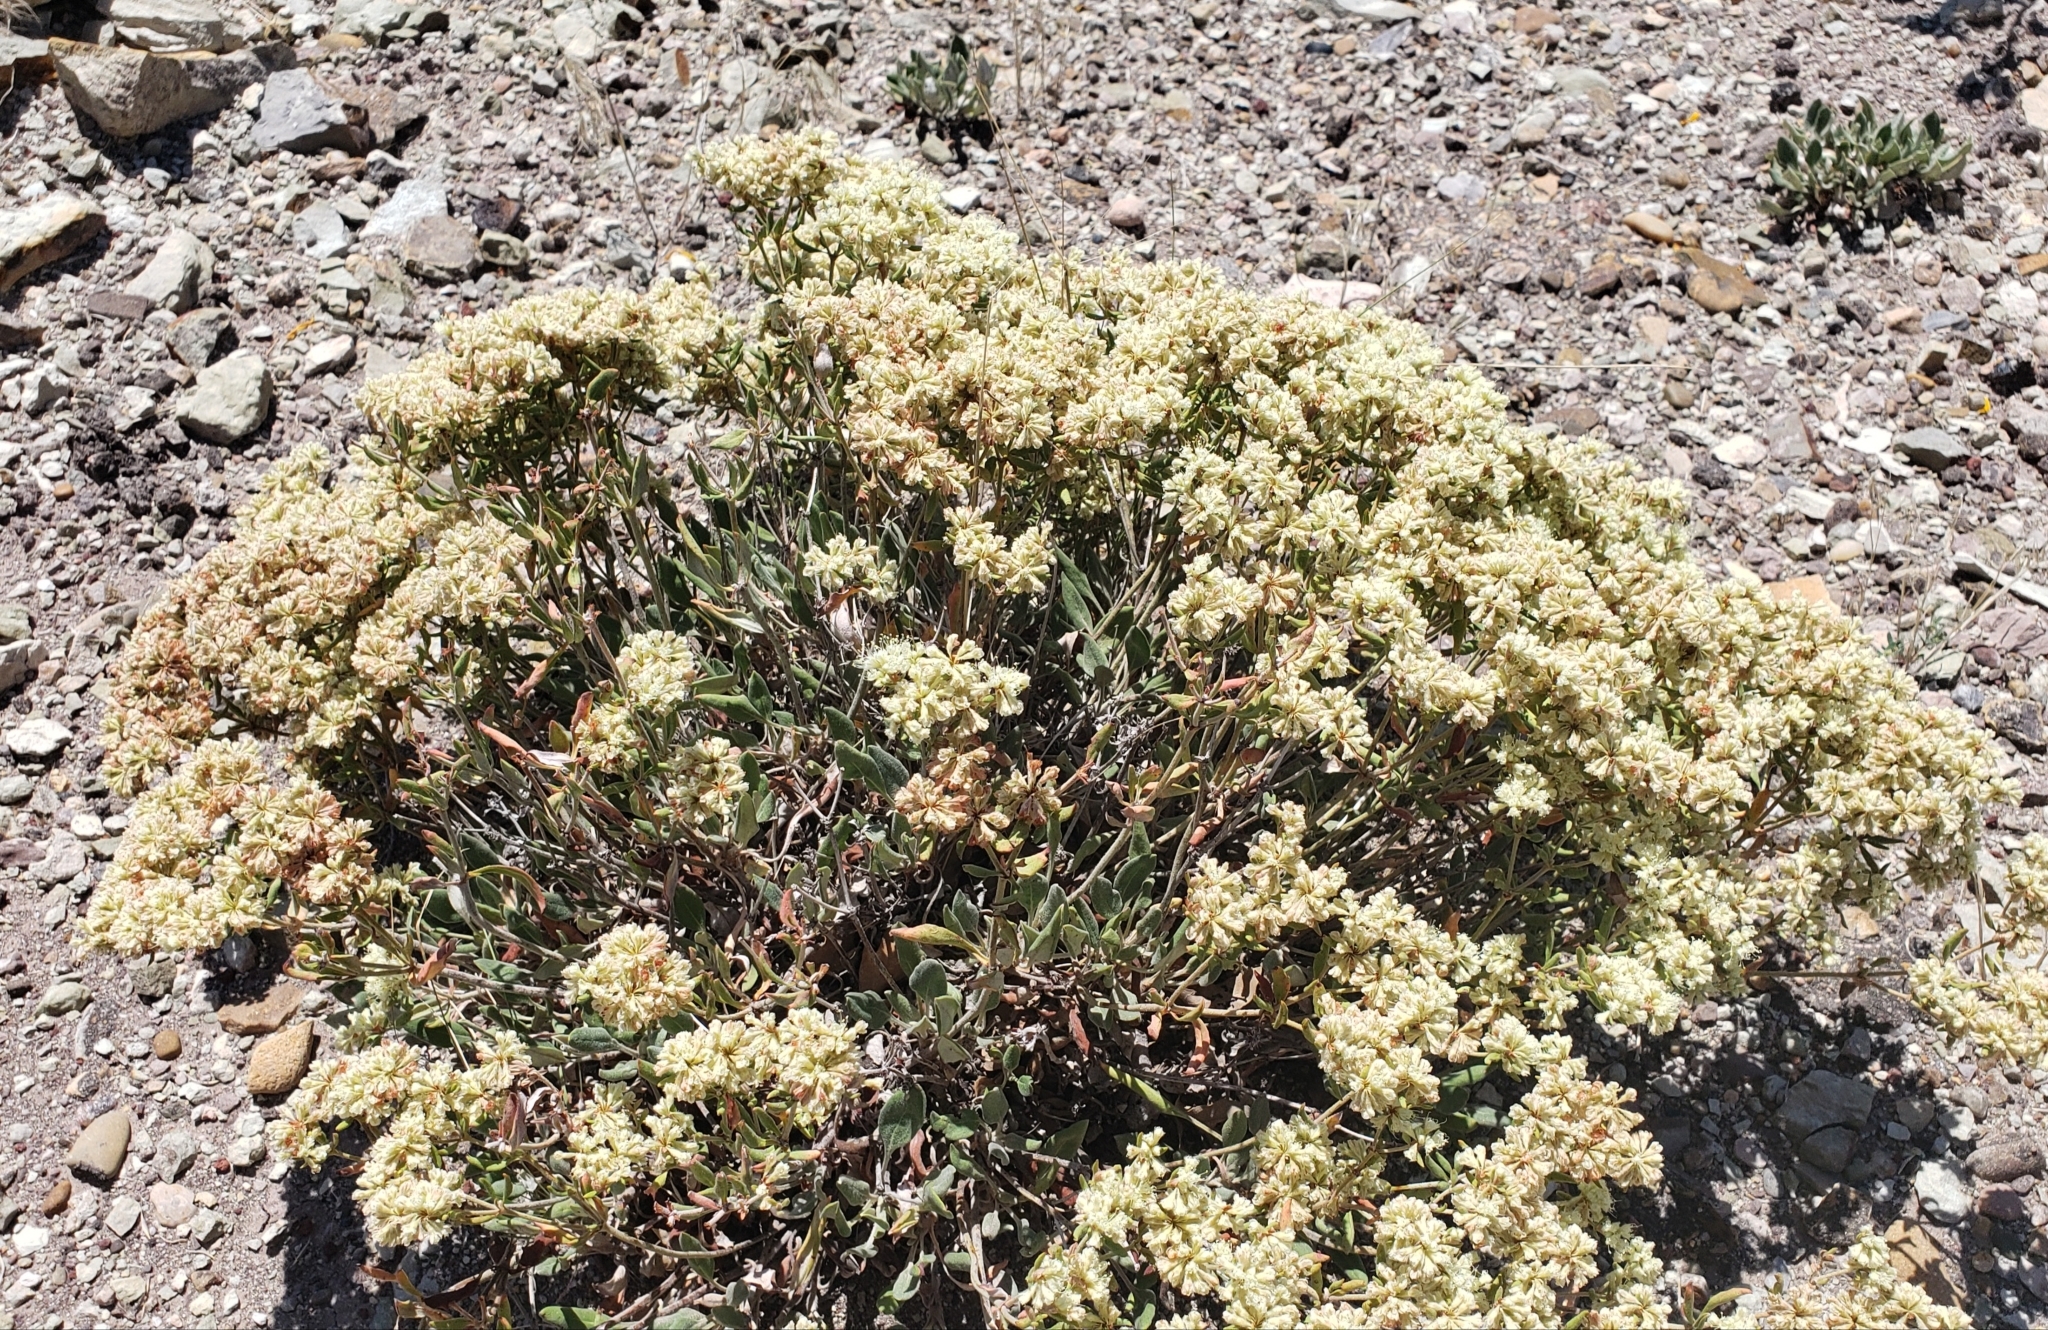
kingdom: Plantae
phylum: Tracheophyta
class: Magnoliopsida
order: Caryophyllales
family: Polygonaceae
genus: Eriogonum
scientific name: Eriogonum jamesii
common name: Antelope-sage
